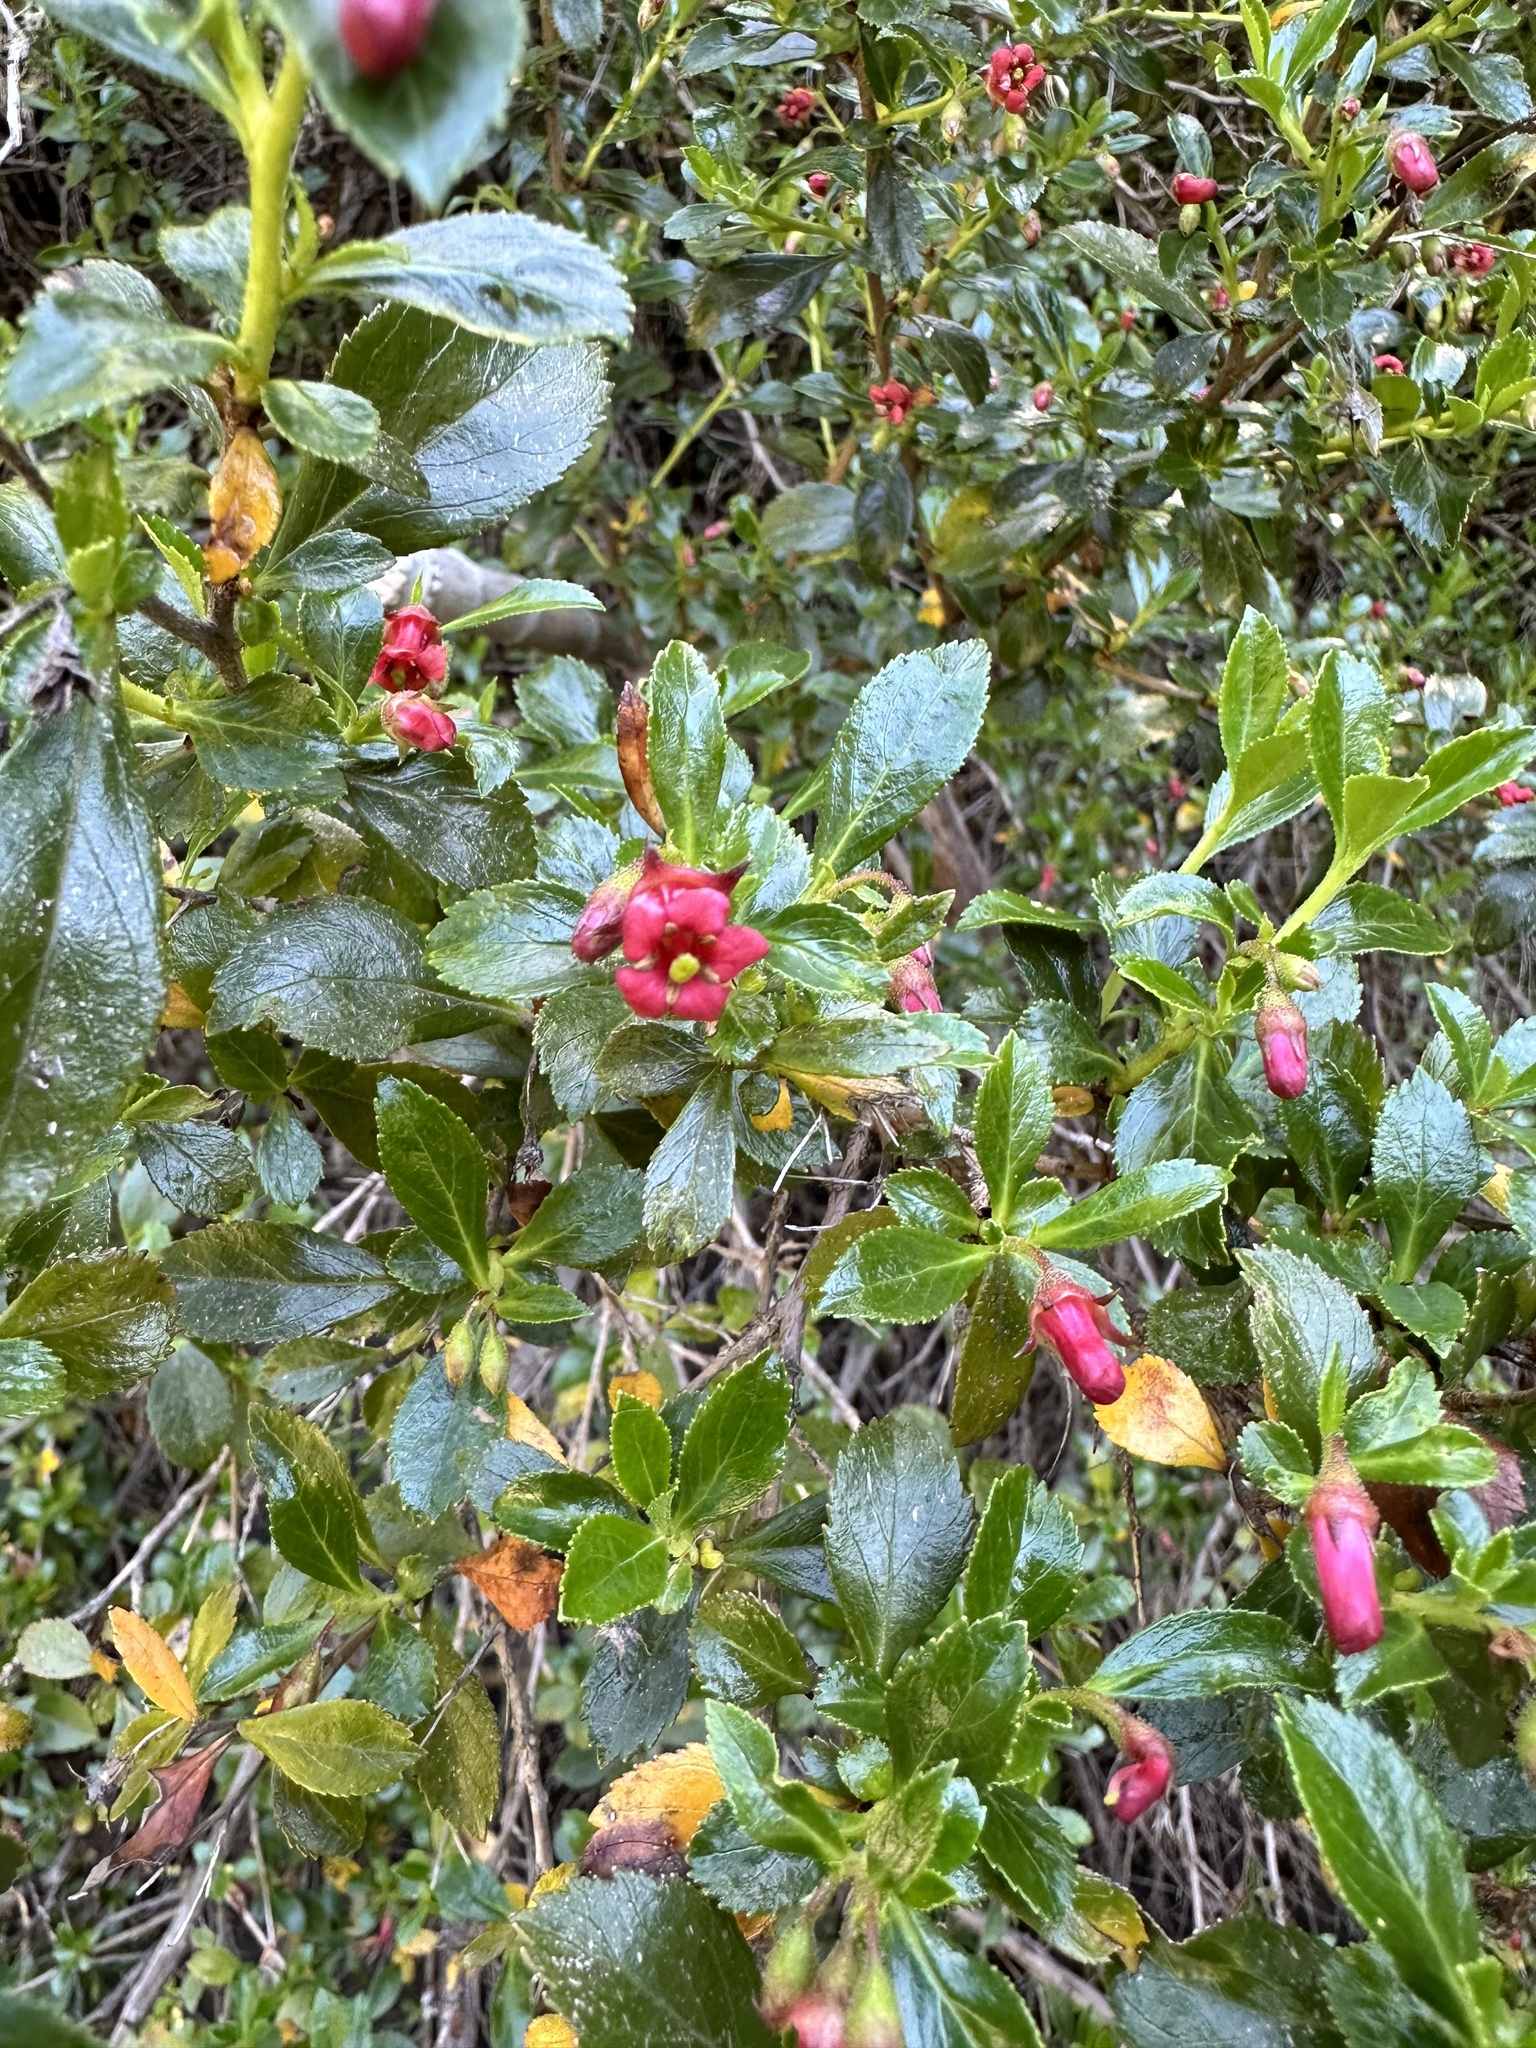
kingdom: Plantae
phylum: Tracheophyta
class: Magnoliopsida
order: Escalloniales
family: Escalloniaceae
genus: Escallonia
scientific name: Escallonia rubra
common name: Redclaws
